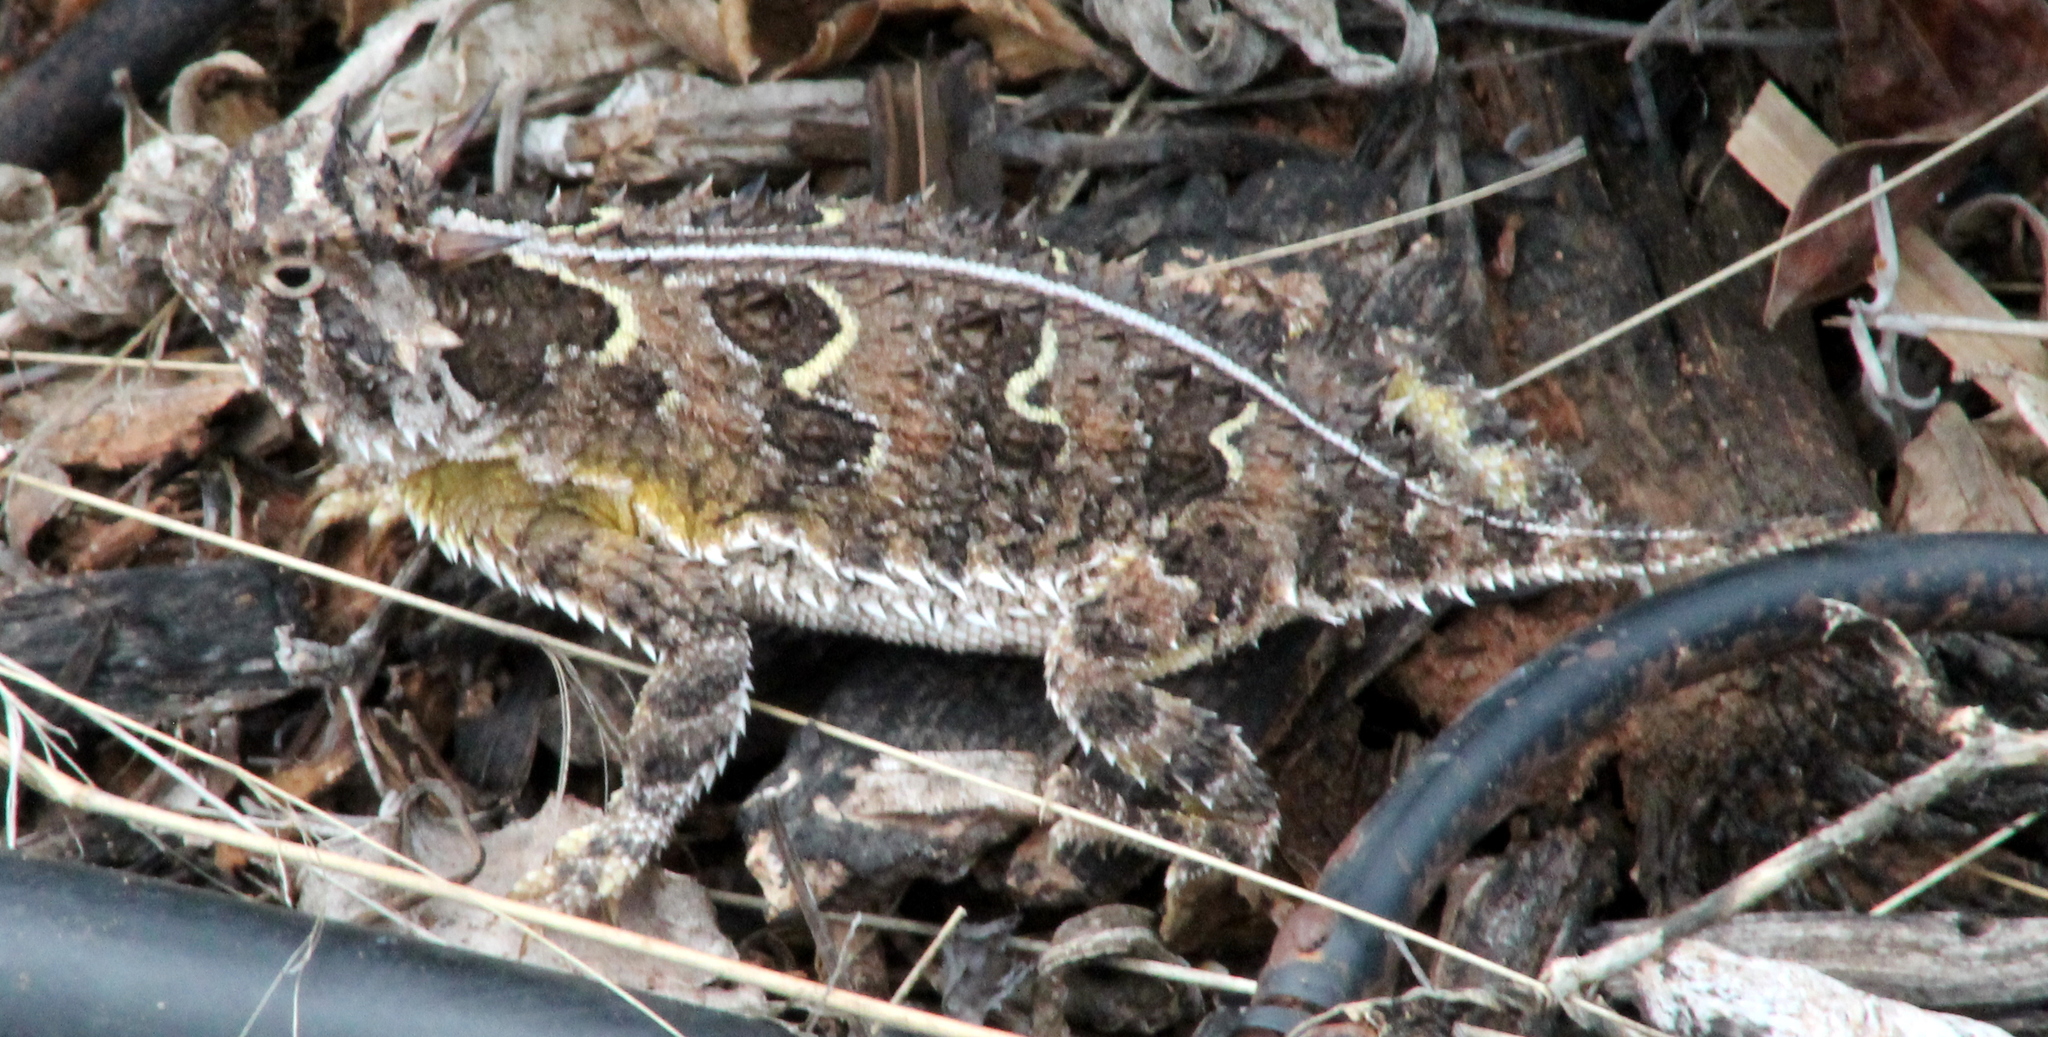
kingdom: Animalia
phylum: Chordata
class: Squamata
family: Phrynosomatidae
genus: Phrynosoma
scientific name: Phrynosoma cornutum
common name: Texas horned lizard
